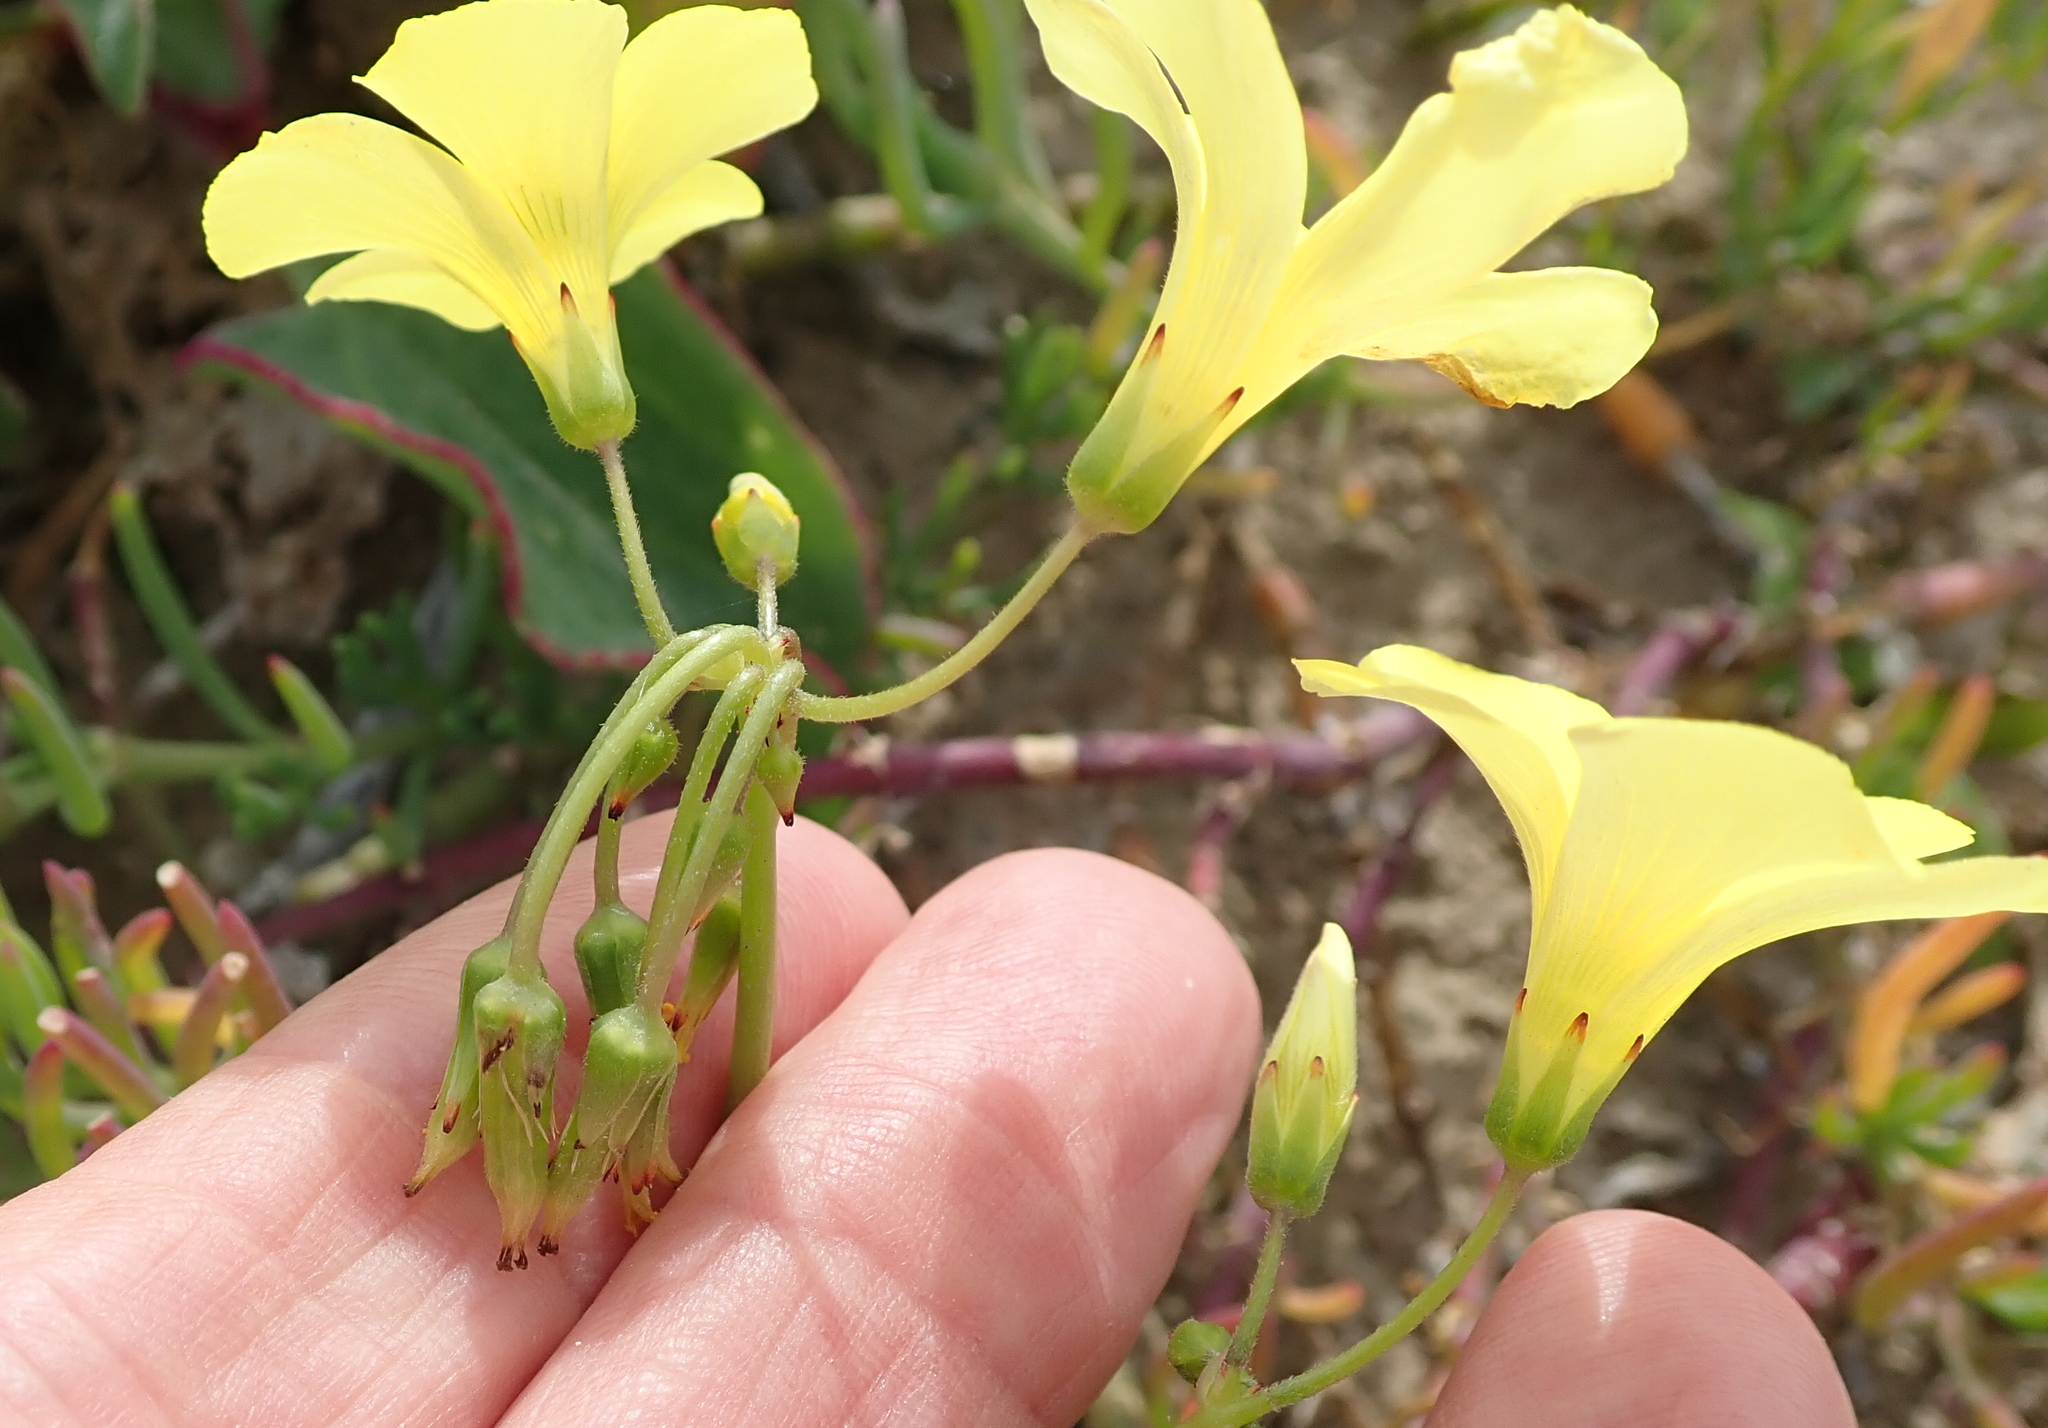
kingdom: Plantae
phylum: Tracheophyta
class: Magnoliopsida
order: Oxalidales
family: Oxalidaceae
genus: Oxalis
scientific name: Oxalis pes-caprae
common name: Bermuda-buttercup
